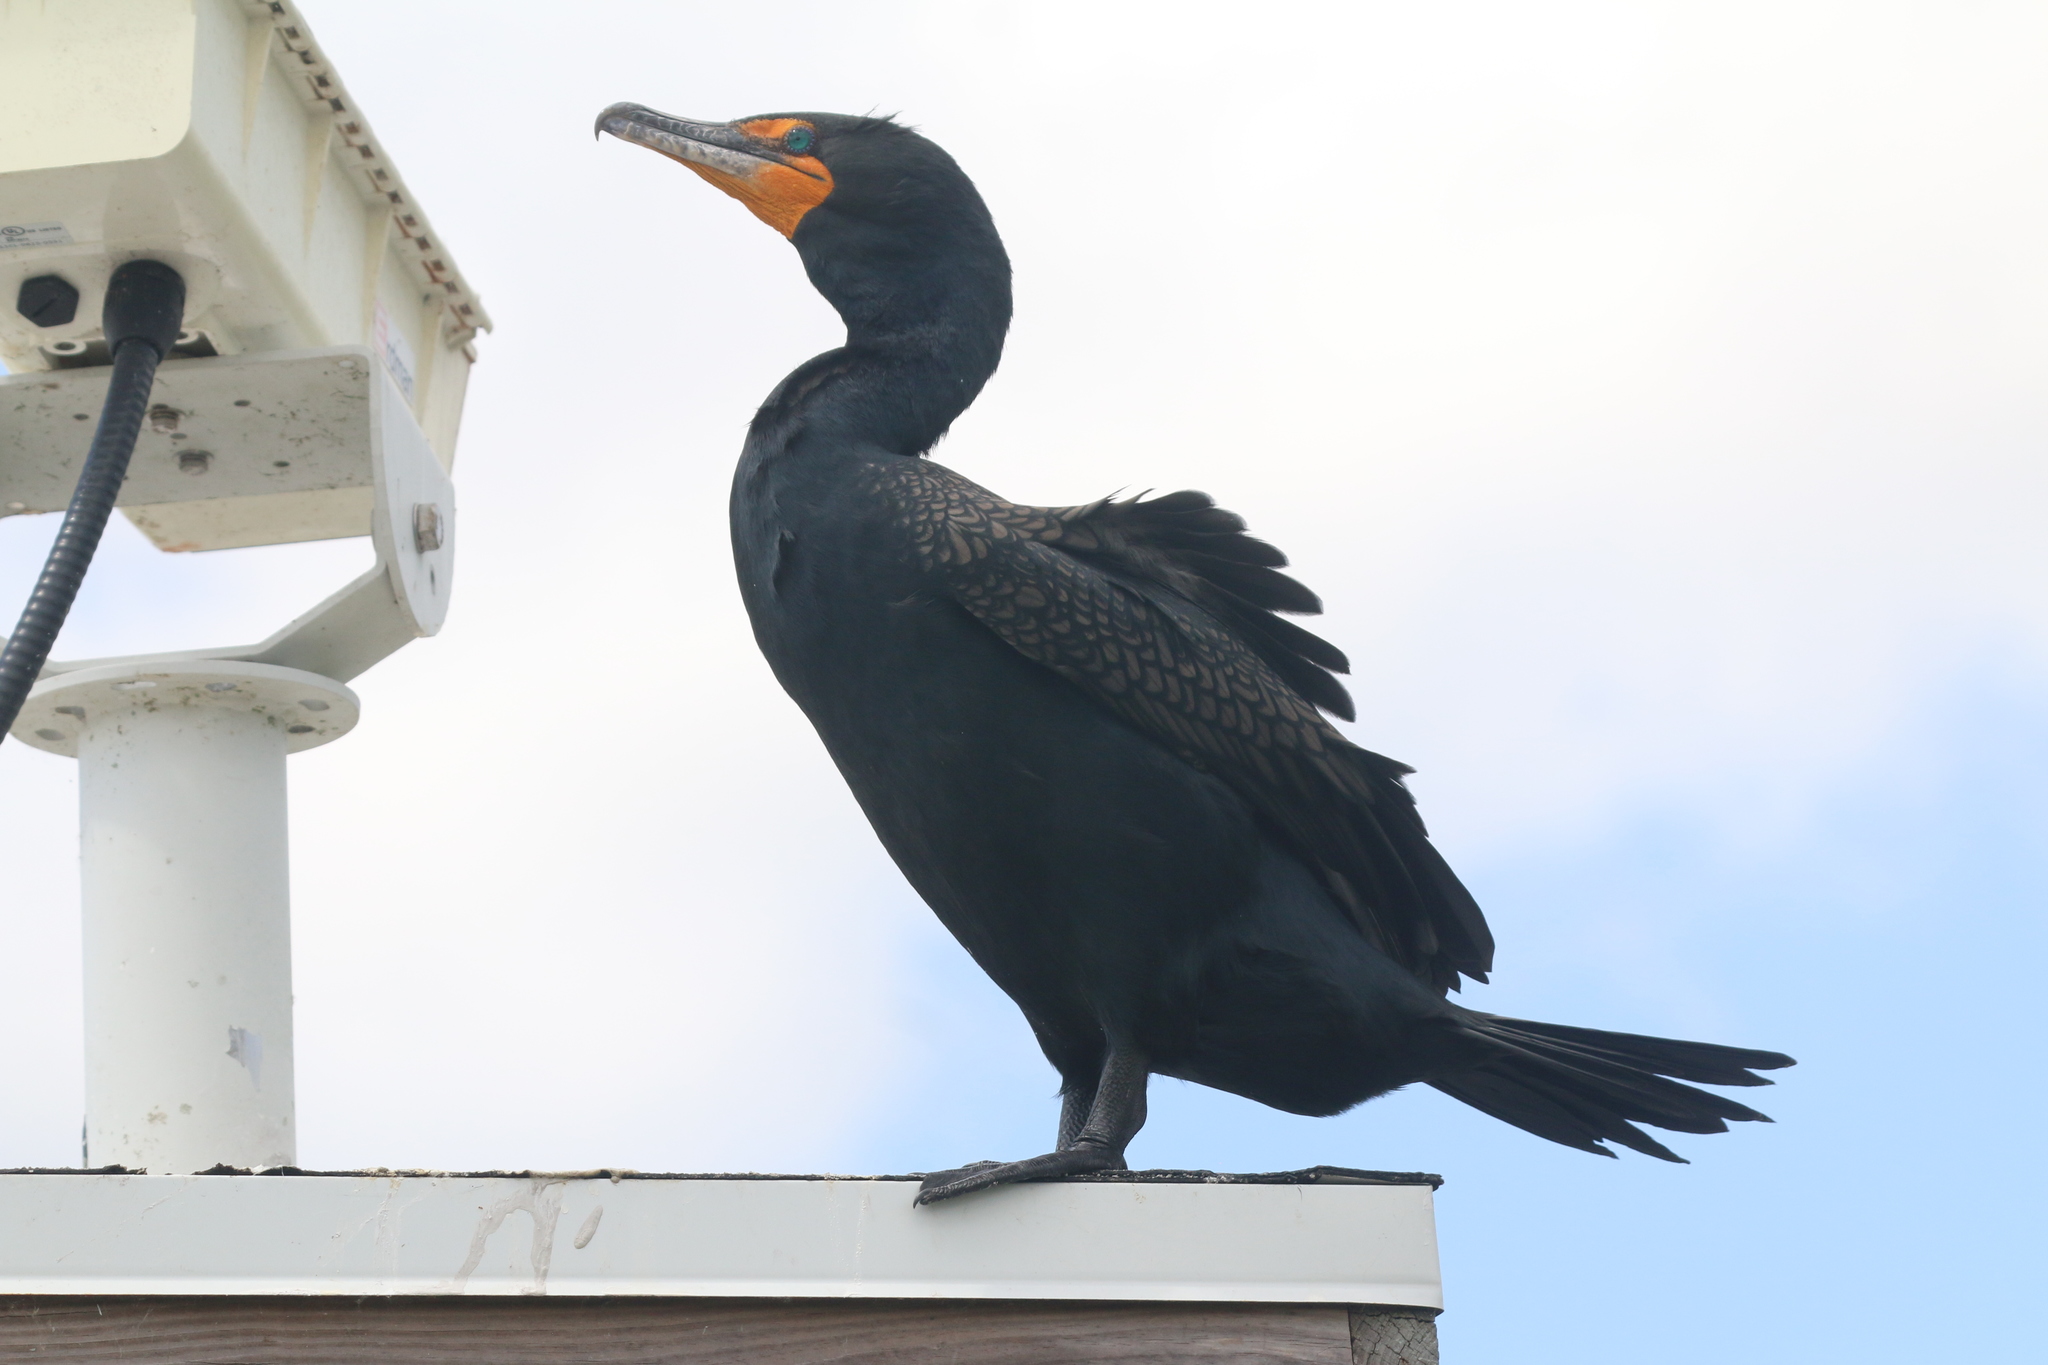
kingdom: Animalia
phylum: Chordata
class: Aves
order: Suliformes
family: Phalacrocoracidae
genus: Phalacrocorax
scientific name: Phalacrocorax auritus
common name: Double-crested cormorant
